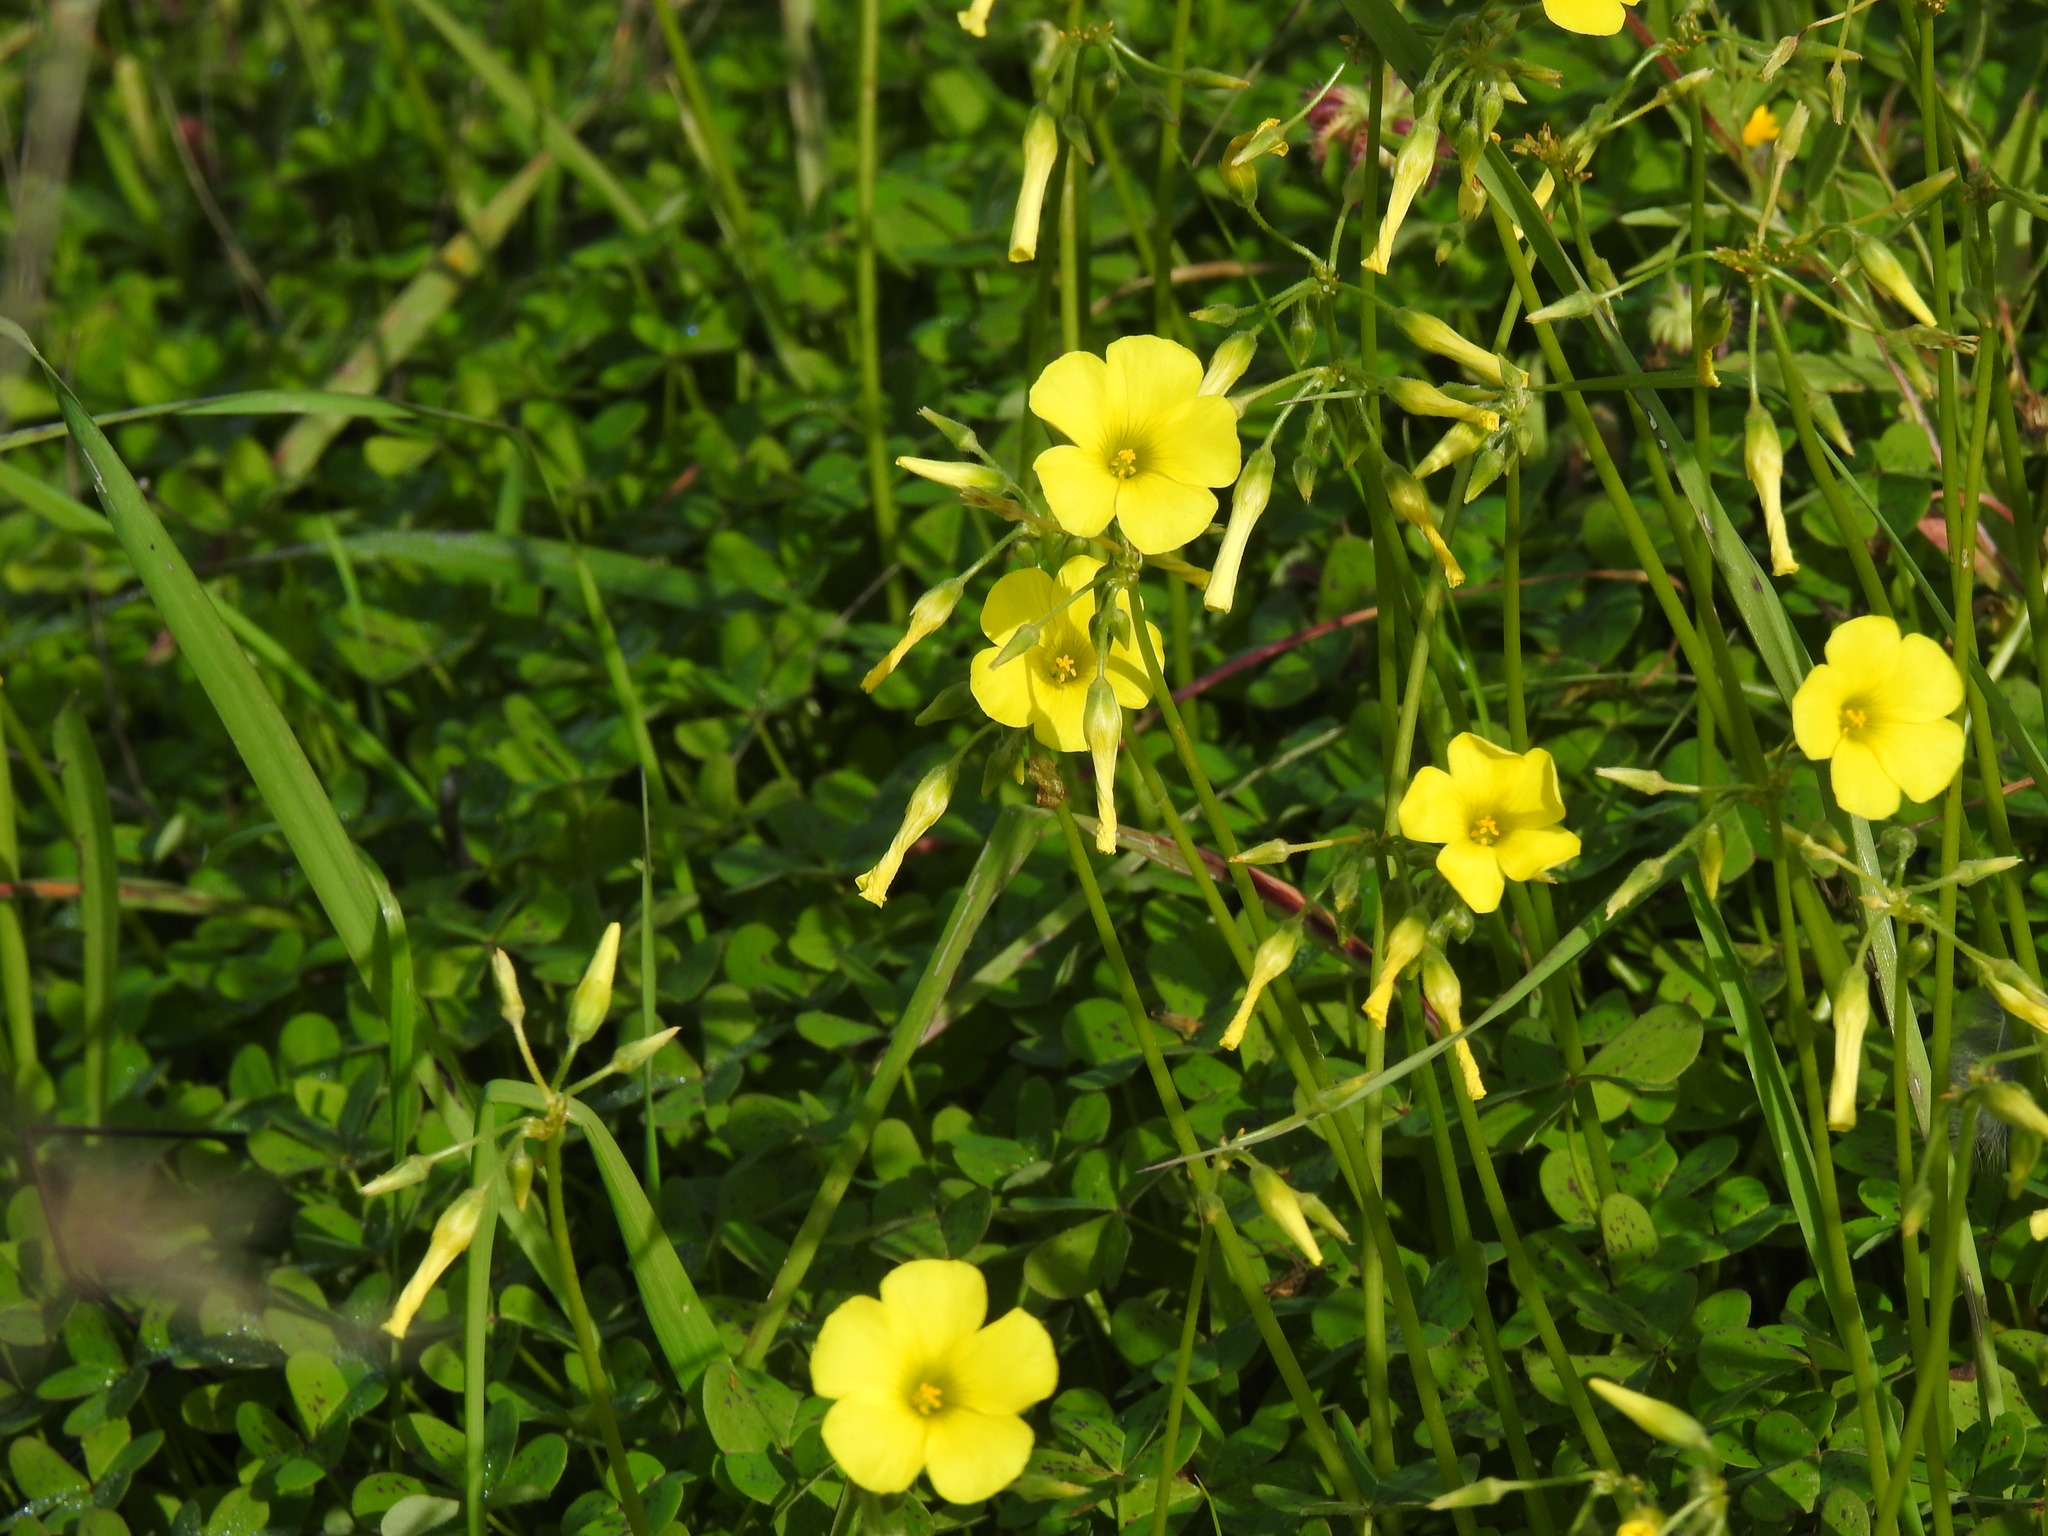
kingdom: Plantae
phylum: Tracheophyta
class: Magnoliopsida
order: Oxalidales
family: Oxalidaceae
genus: Oxalis
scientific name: Oxalis pes-caprae
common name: Bermuda-buttercup
